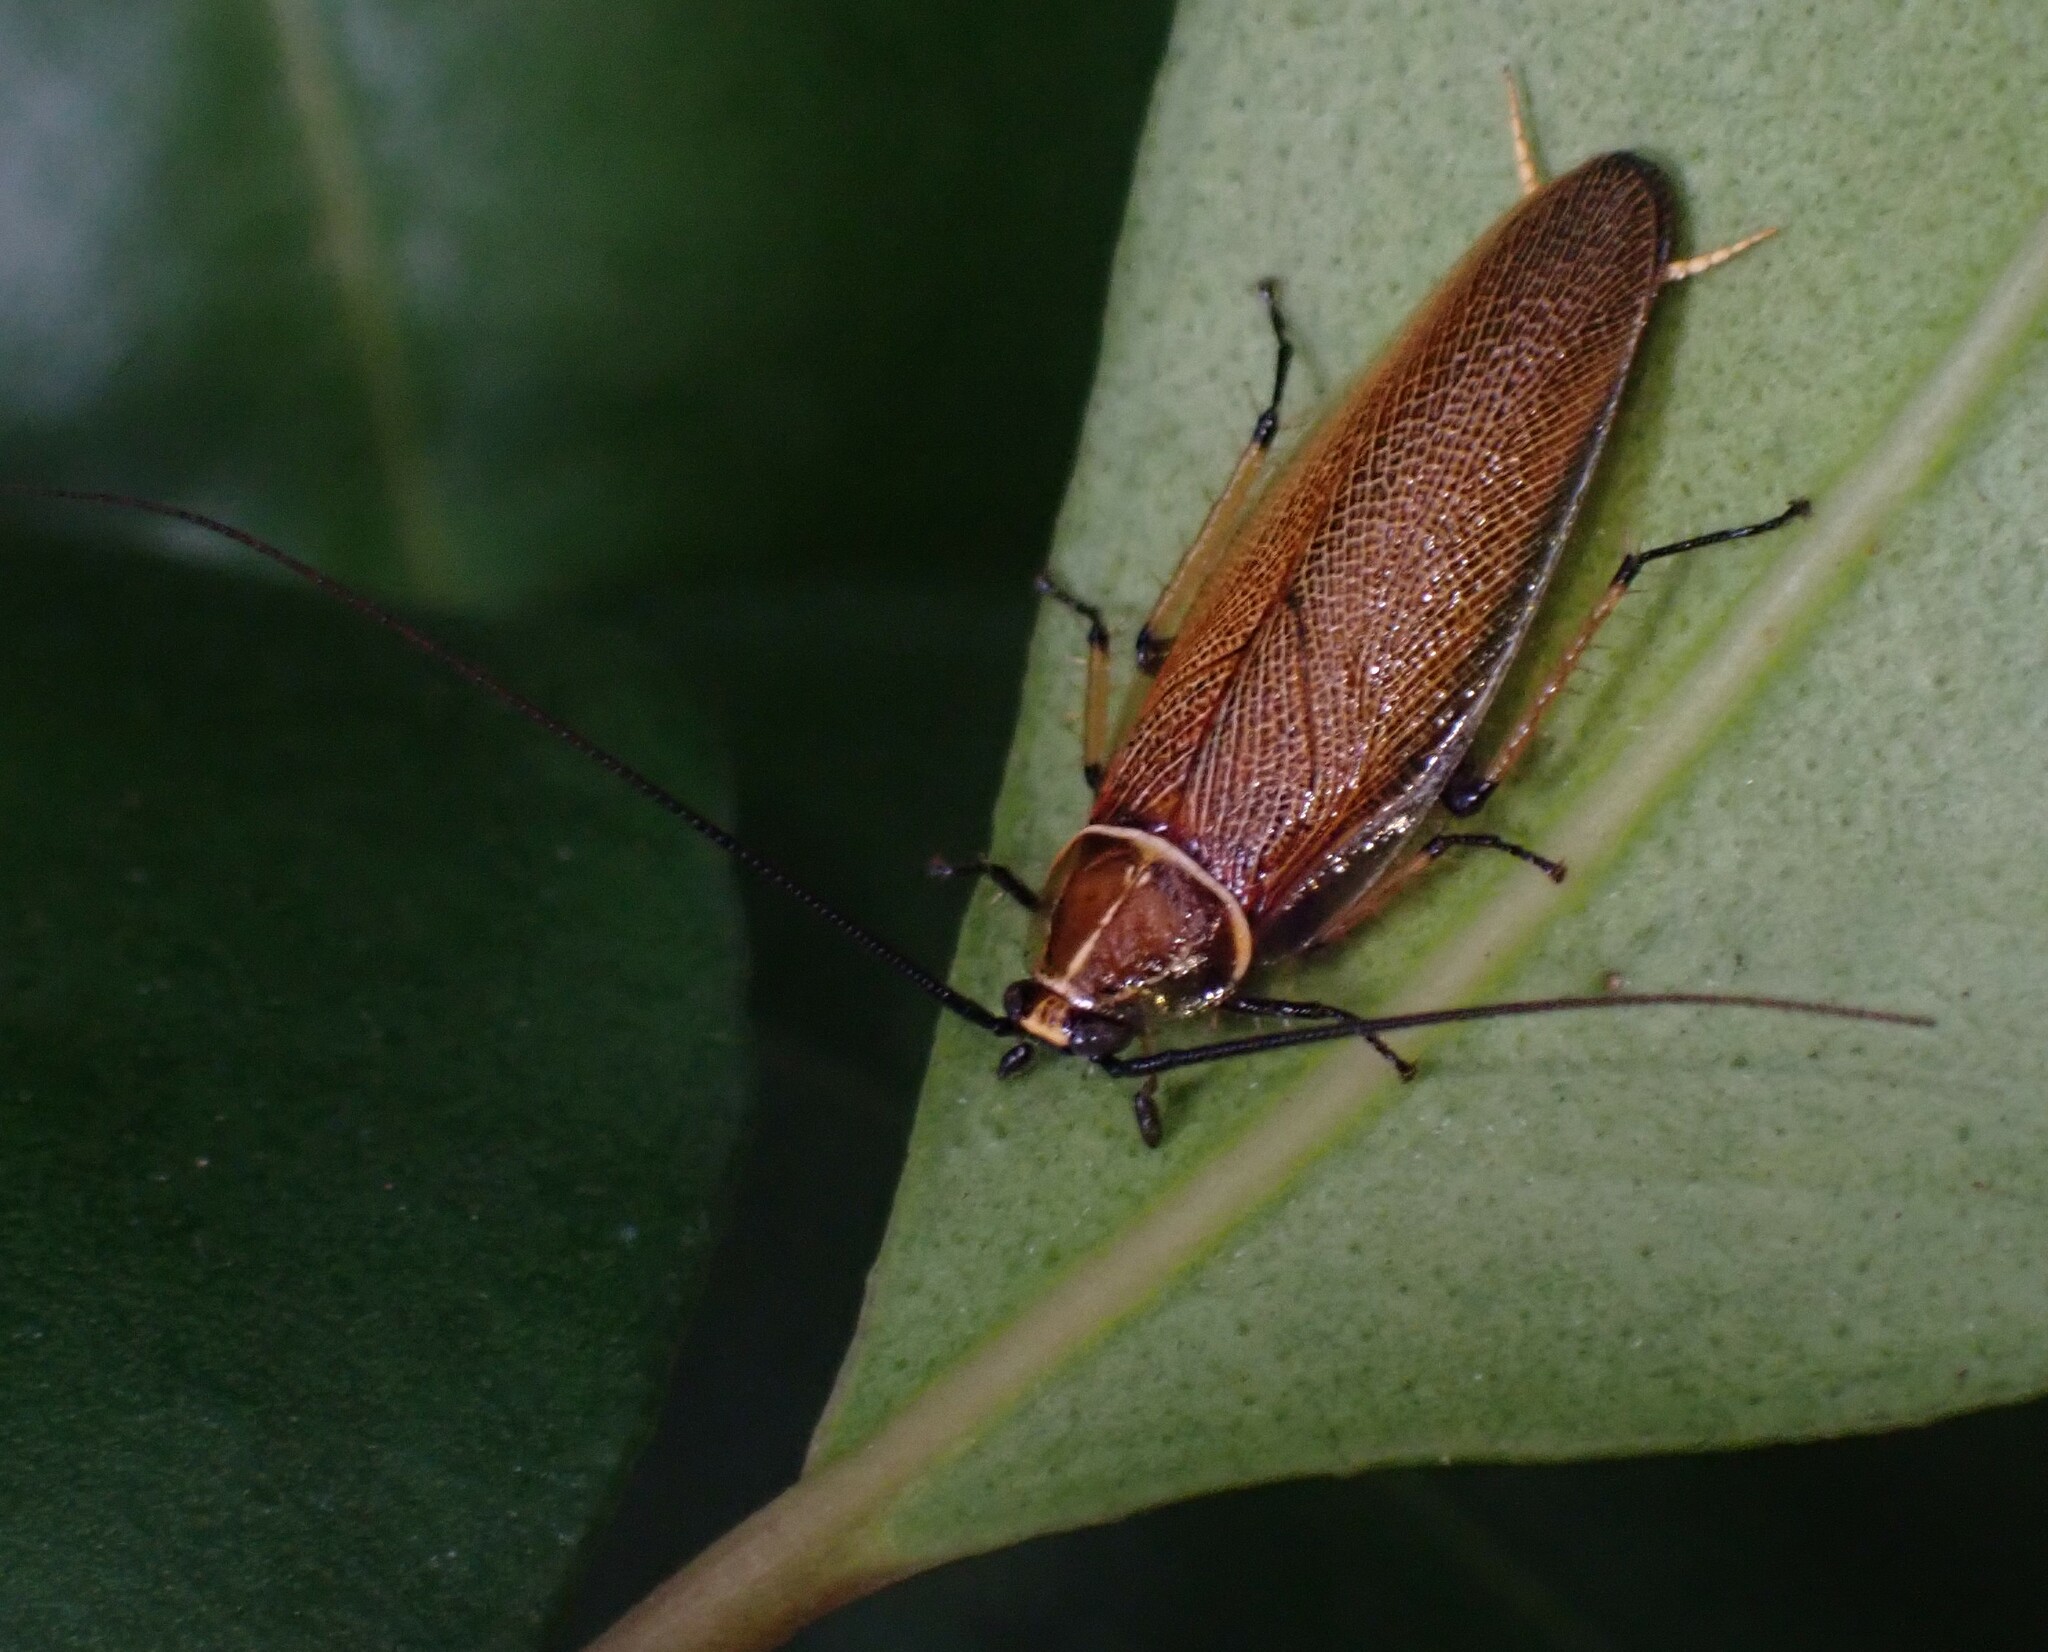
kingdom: Animalia
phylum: Arthropoda
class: Insecta
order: Blattodea
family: Ectobiidae
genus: Balta
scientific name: Balta bicolor
